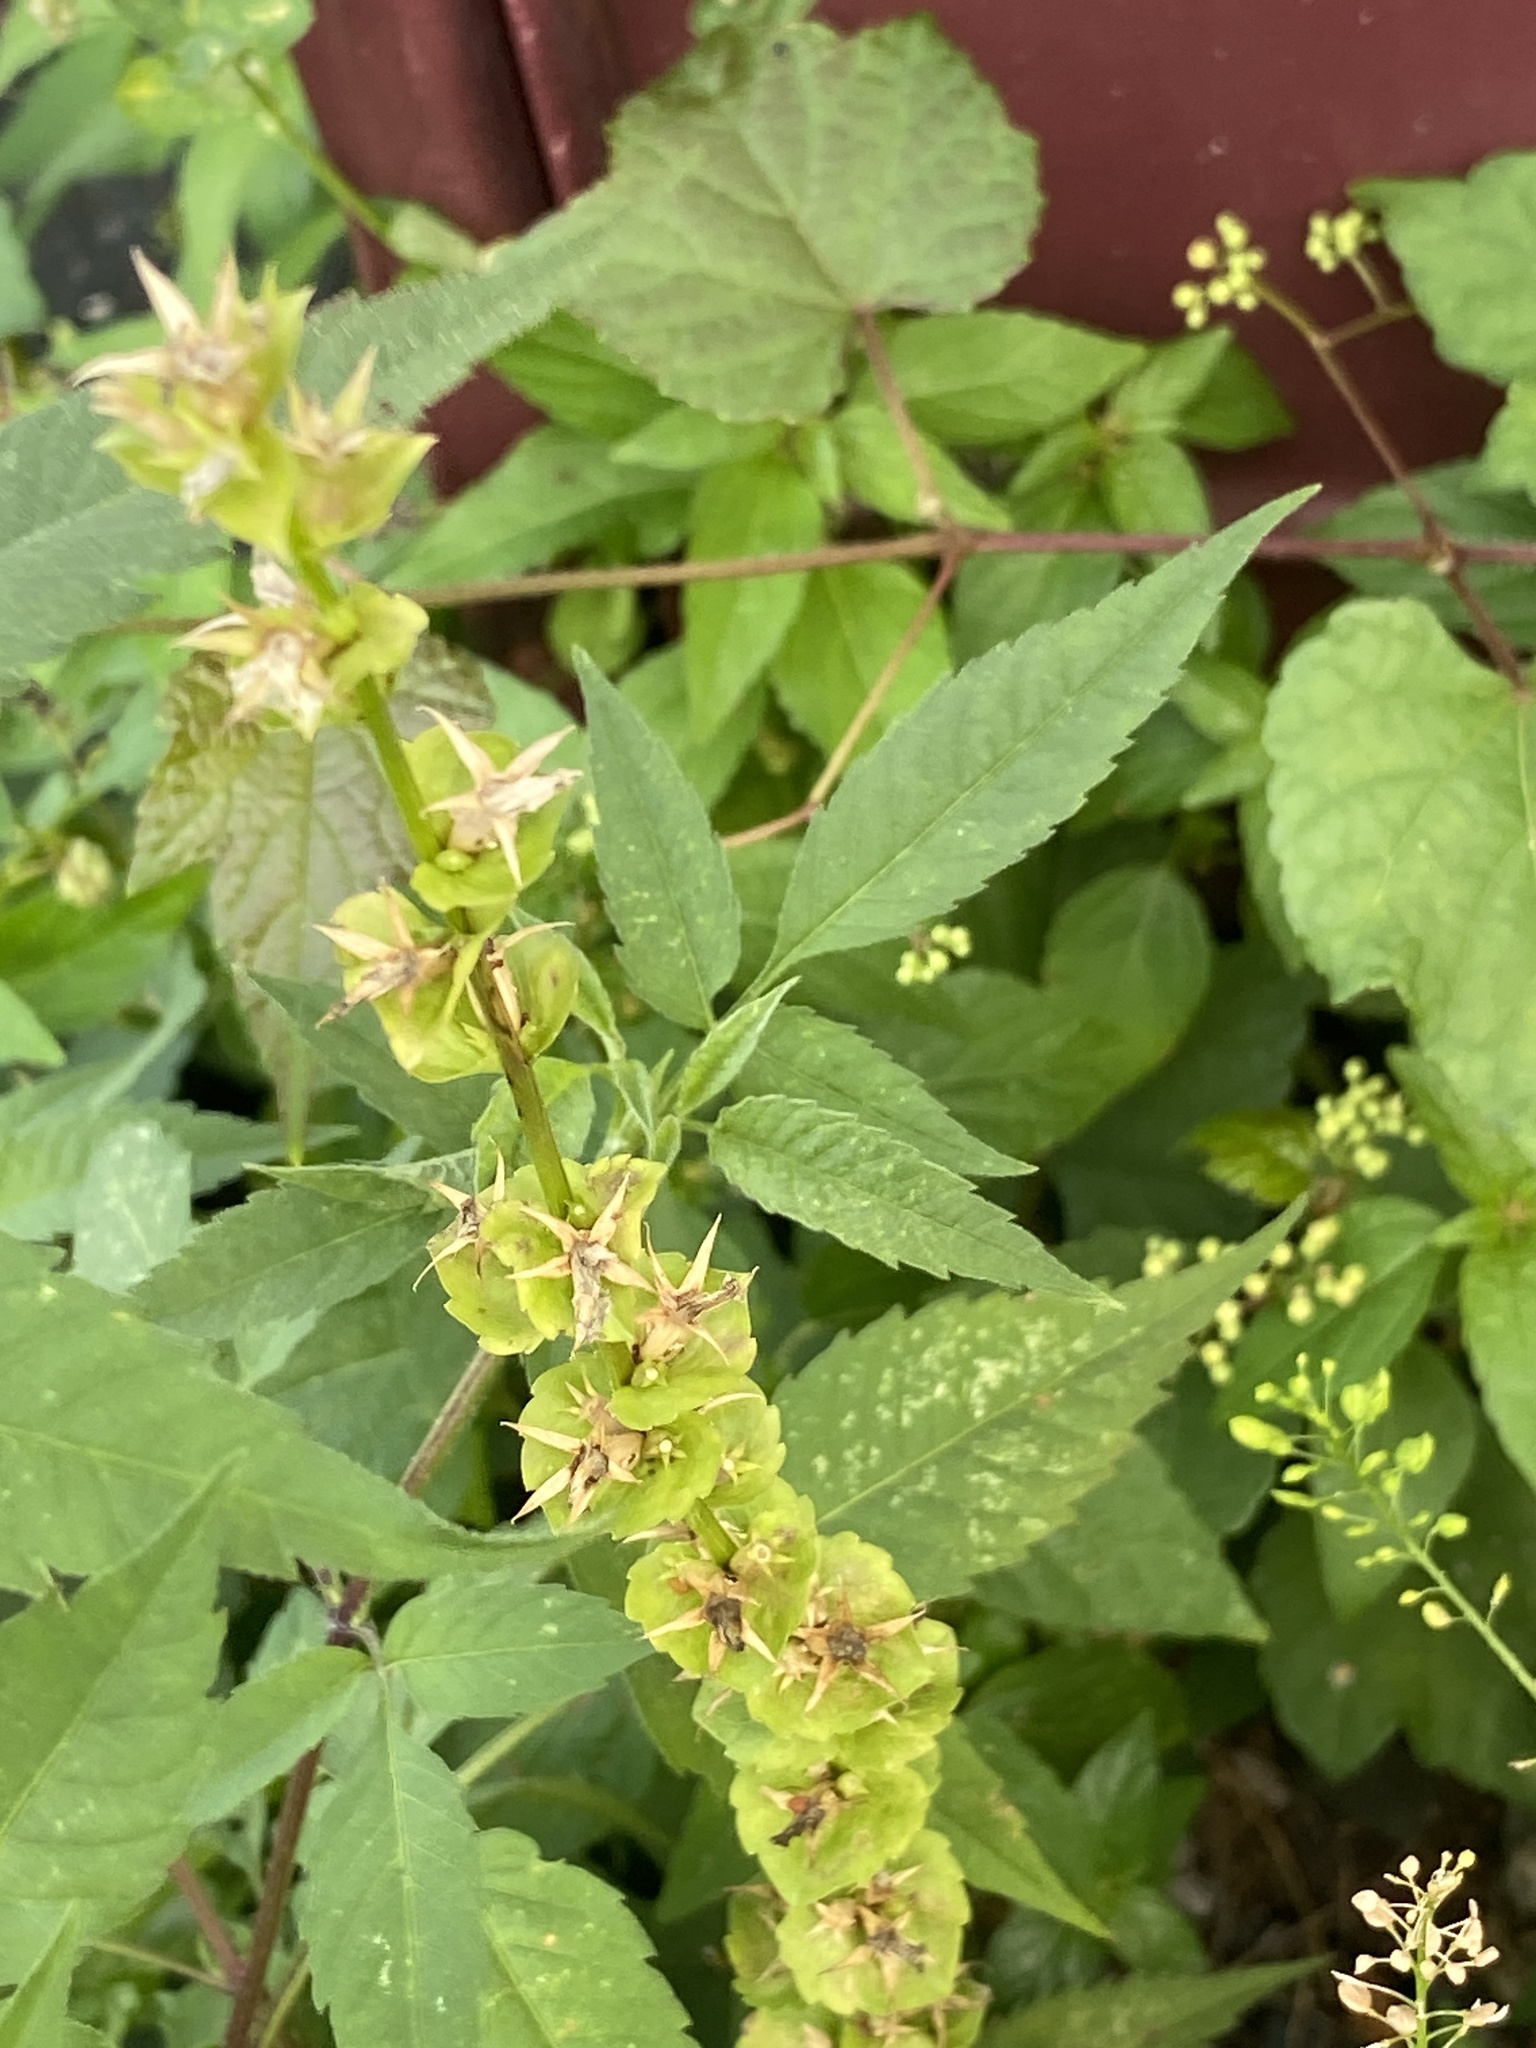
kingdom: Plantae
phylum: Tracheophyta
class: Magnoliopsida
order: Asterales
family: Campanulaceae
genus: Triodanis
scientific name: Triodanis perfoliata
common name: Clasping venus' looking-glass
